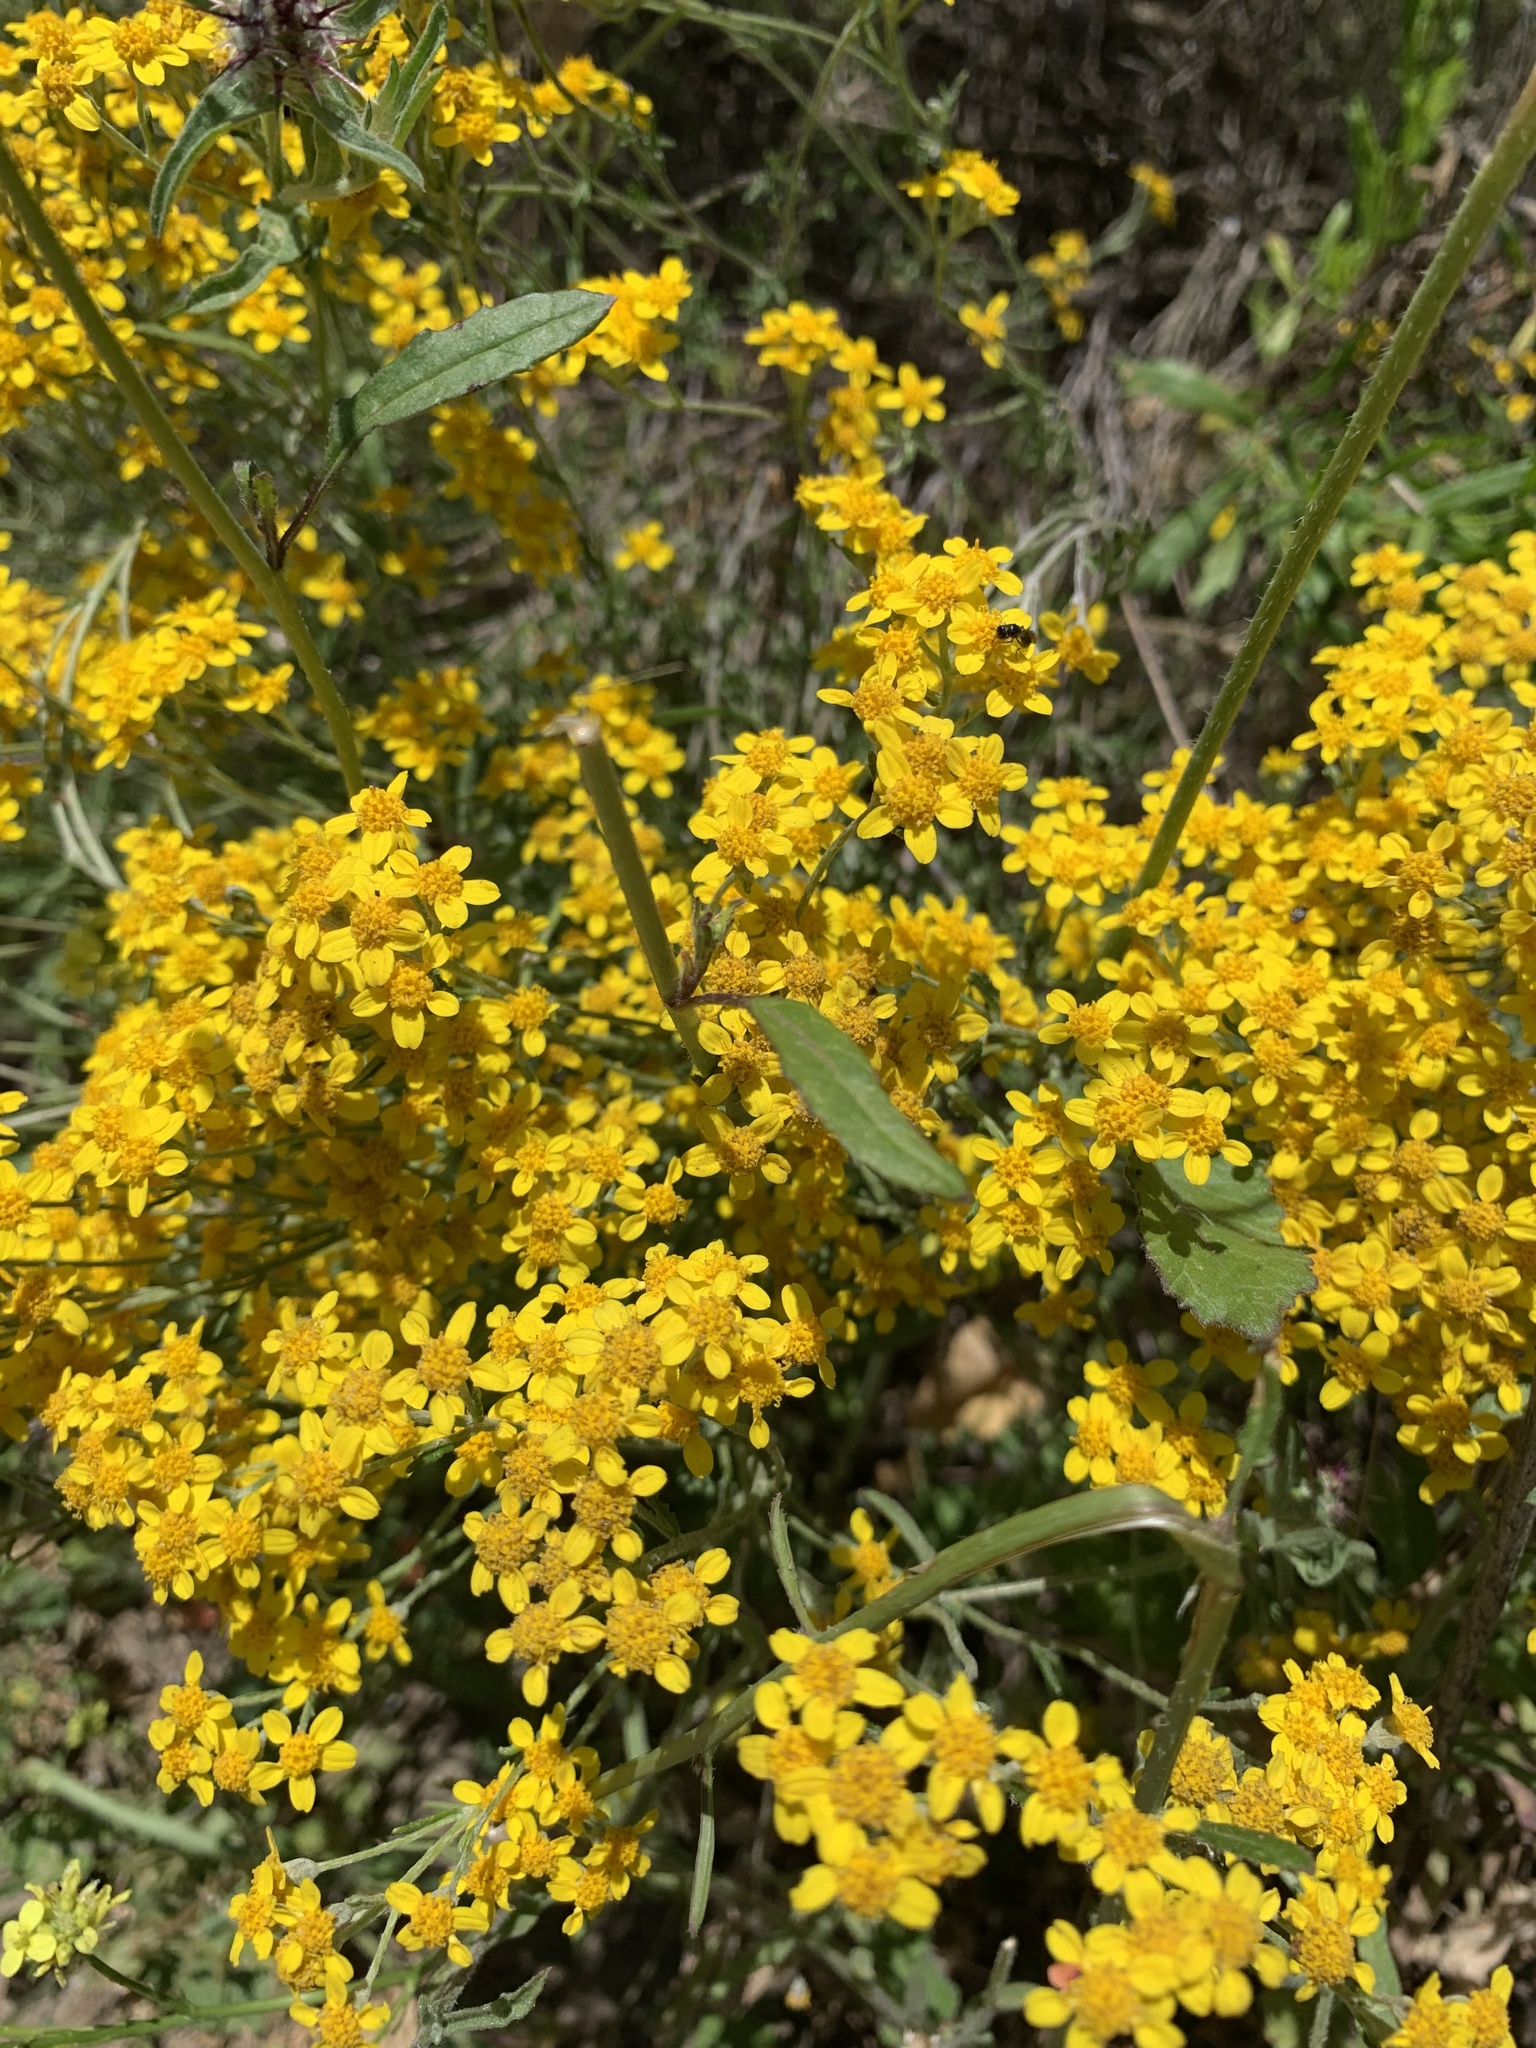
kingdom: Plantae
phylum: Tracheophyta
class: Magnoliopsida
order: Asterales
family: Asteraceae
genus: Eriophyllum
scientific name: Eriophyllum confertiflorum
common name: Golden-yarrow
